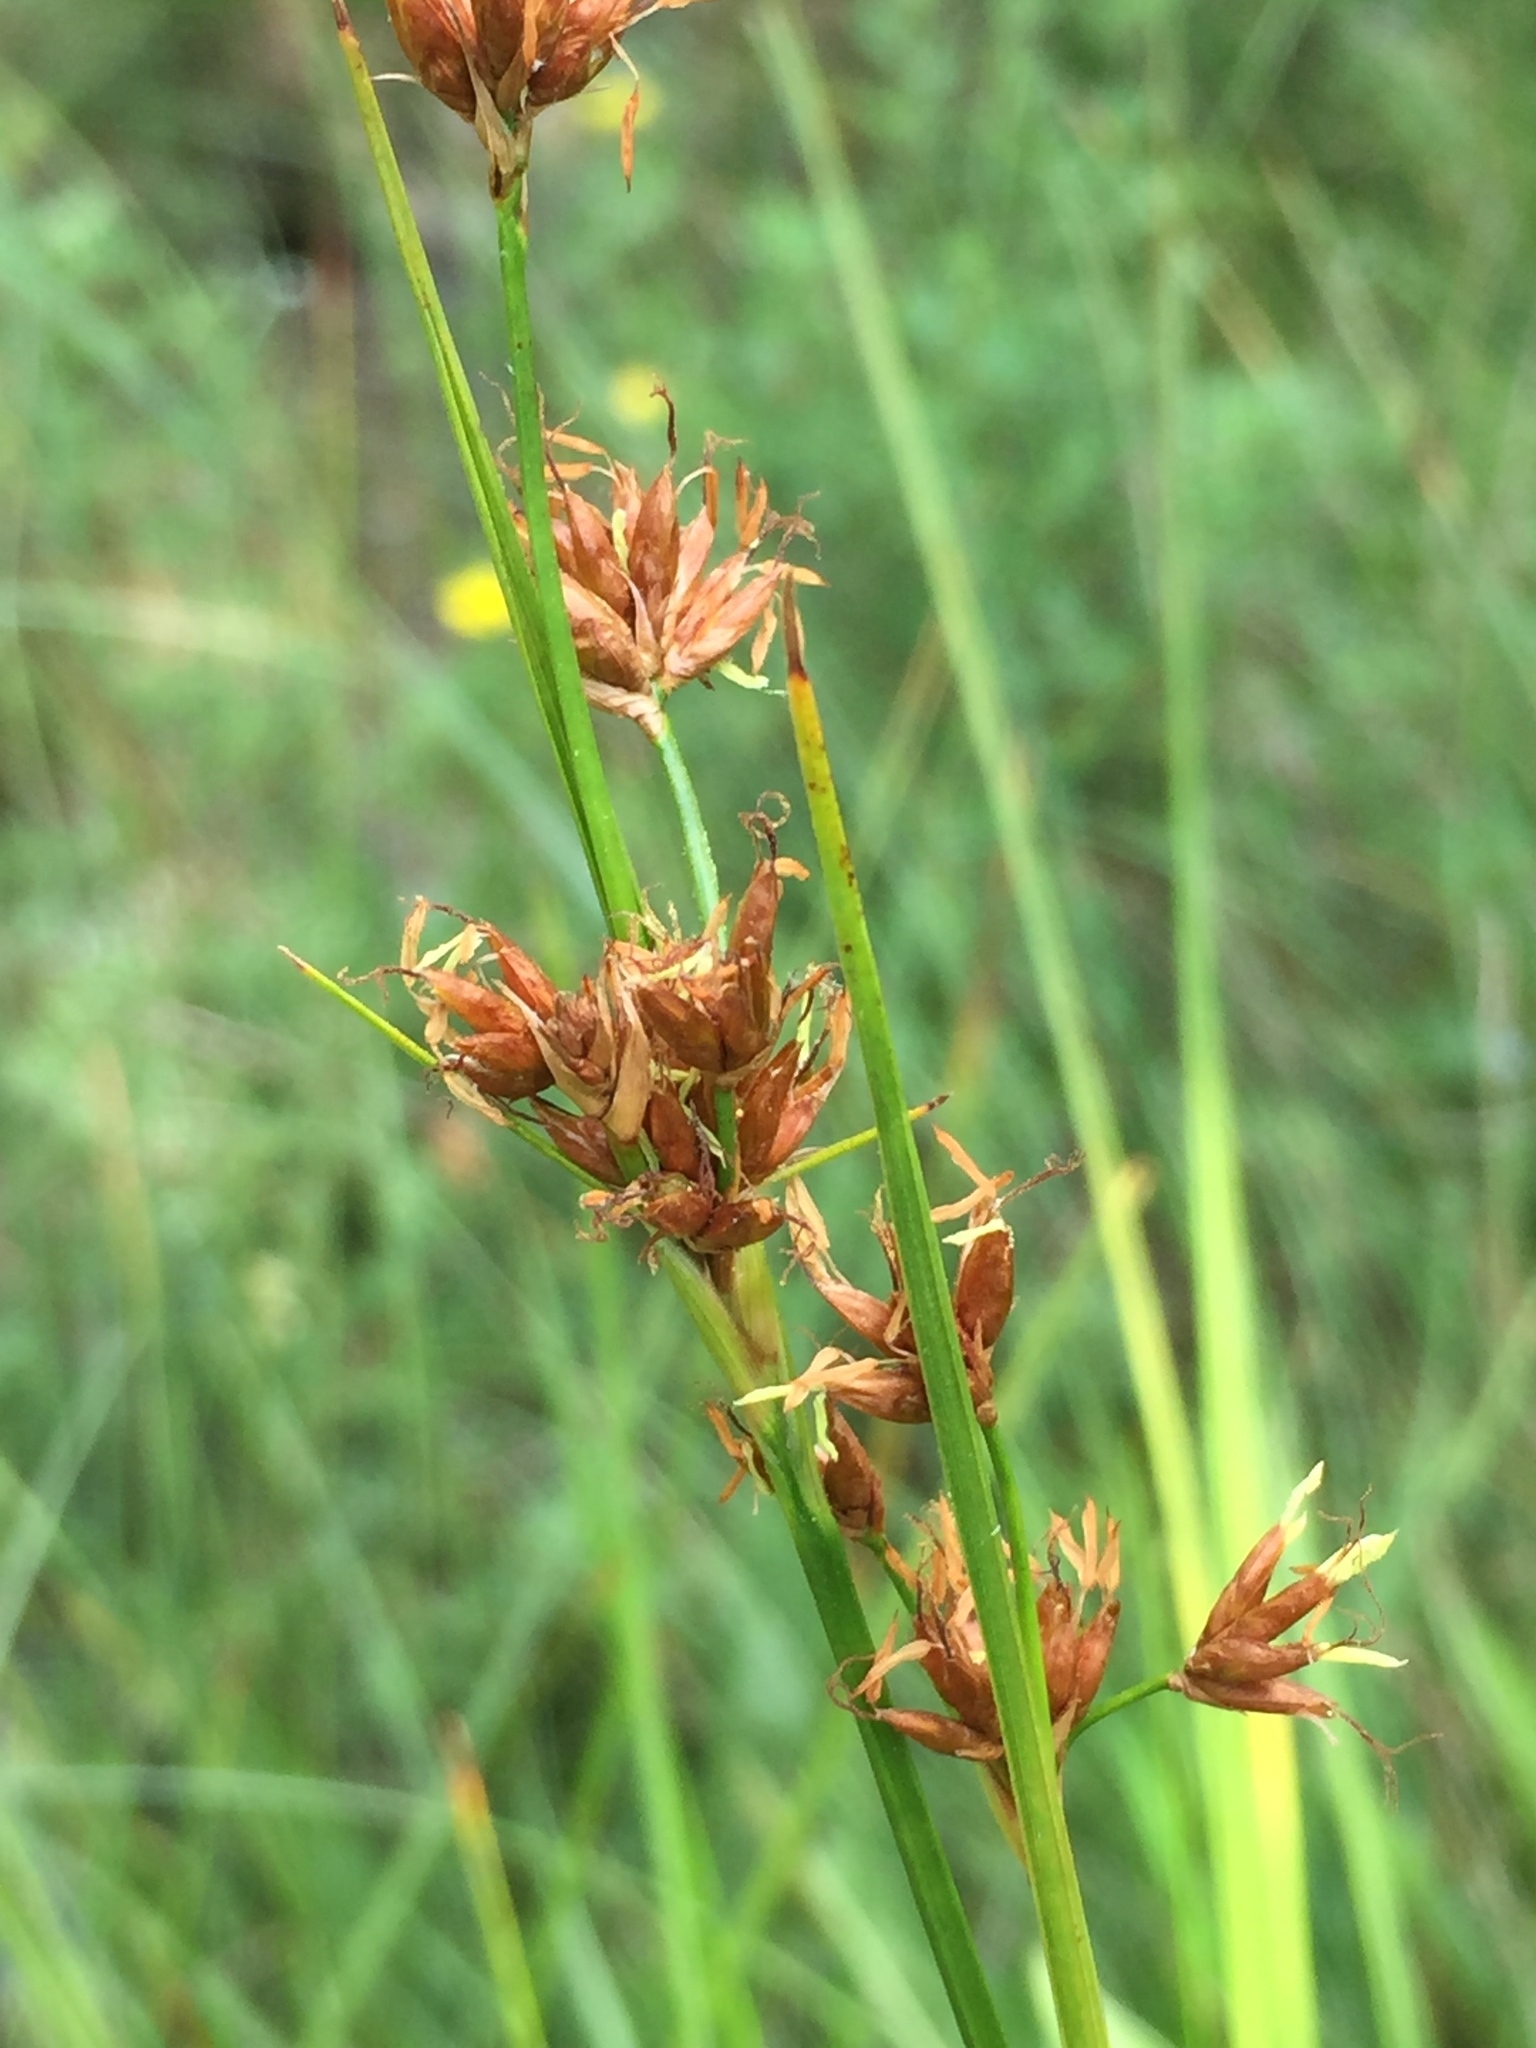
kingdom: Plantae
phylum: Tracheophyta
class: Liliopsida
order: Poales
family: Cyperaceae
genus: Cladium
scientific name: Cladium mariscoides
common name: Smooth sawgrass
